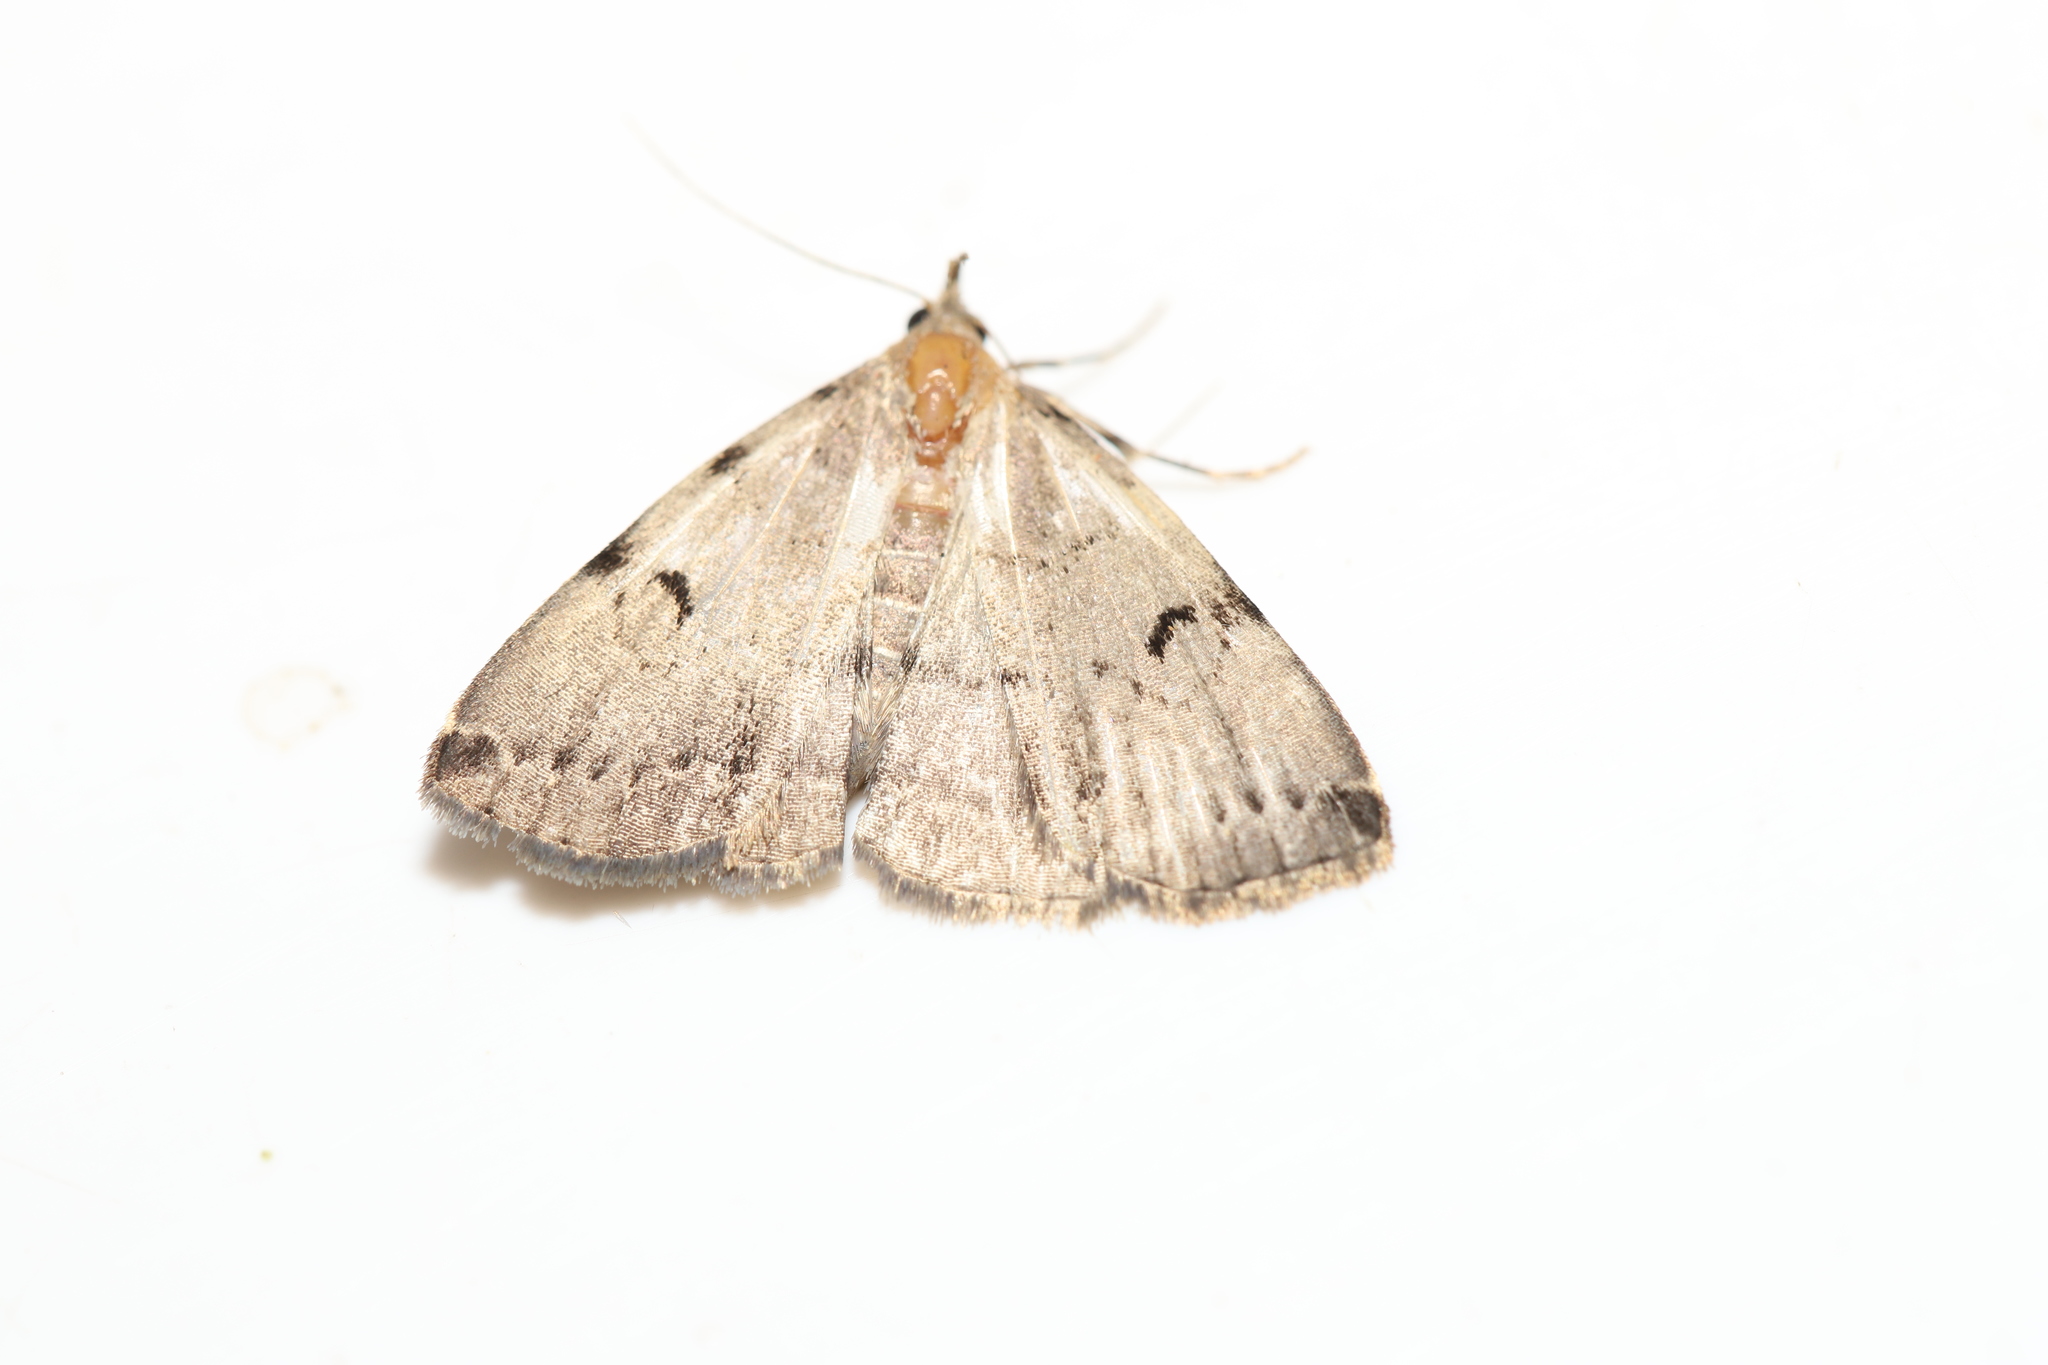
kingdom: Animalia
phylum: Arthropoda
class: Insecta
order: Lepidoptera
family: Erebidae
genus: Zanclognatha
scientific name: Zanclognatha lituralis
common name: Lettered fan-foot
